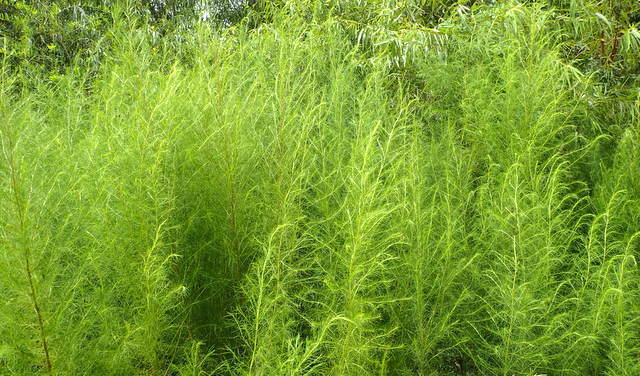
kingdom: Plantae
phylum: Tracheophyta
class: Magnoliopsida
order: Asterales
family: Asteraceae
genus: Eupatorium
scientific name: Eupatorium capillifolium
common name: Dog-fennel
